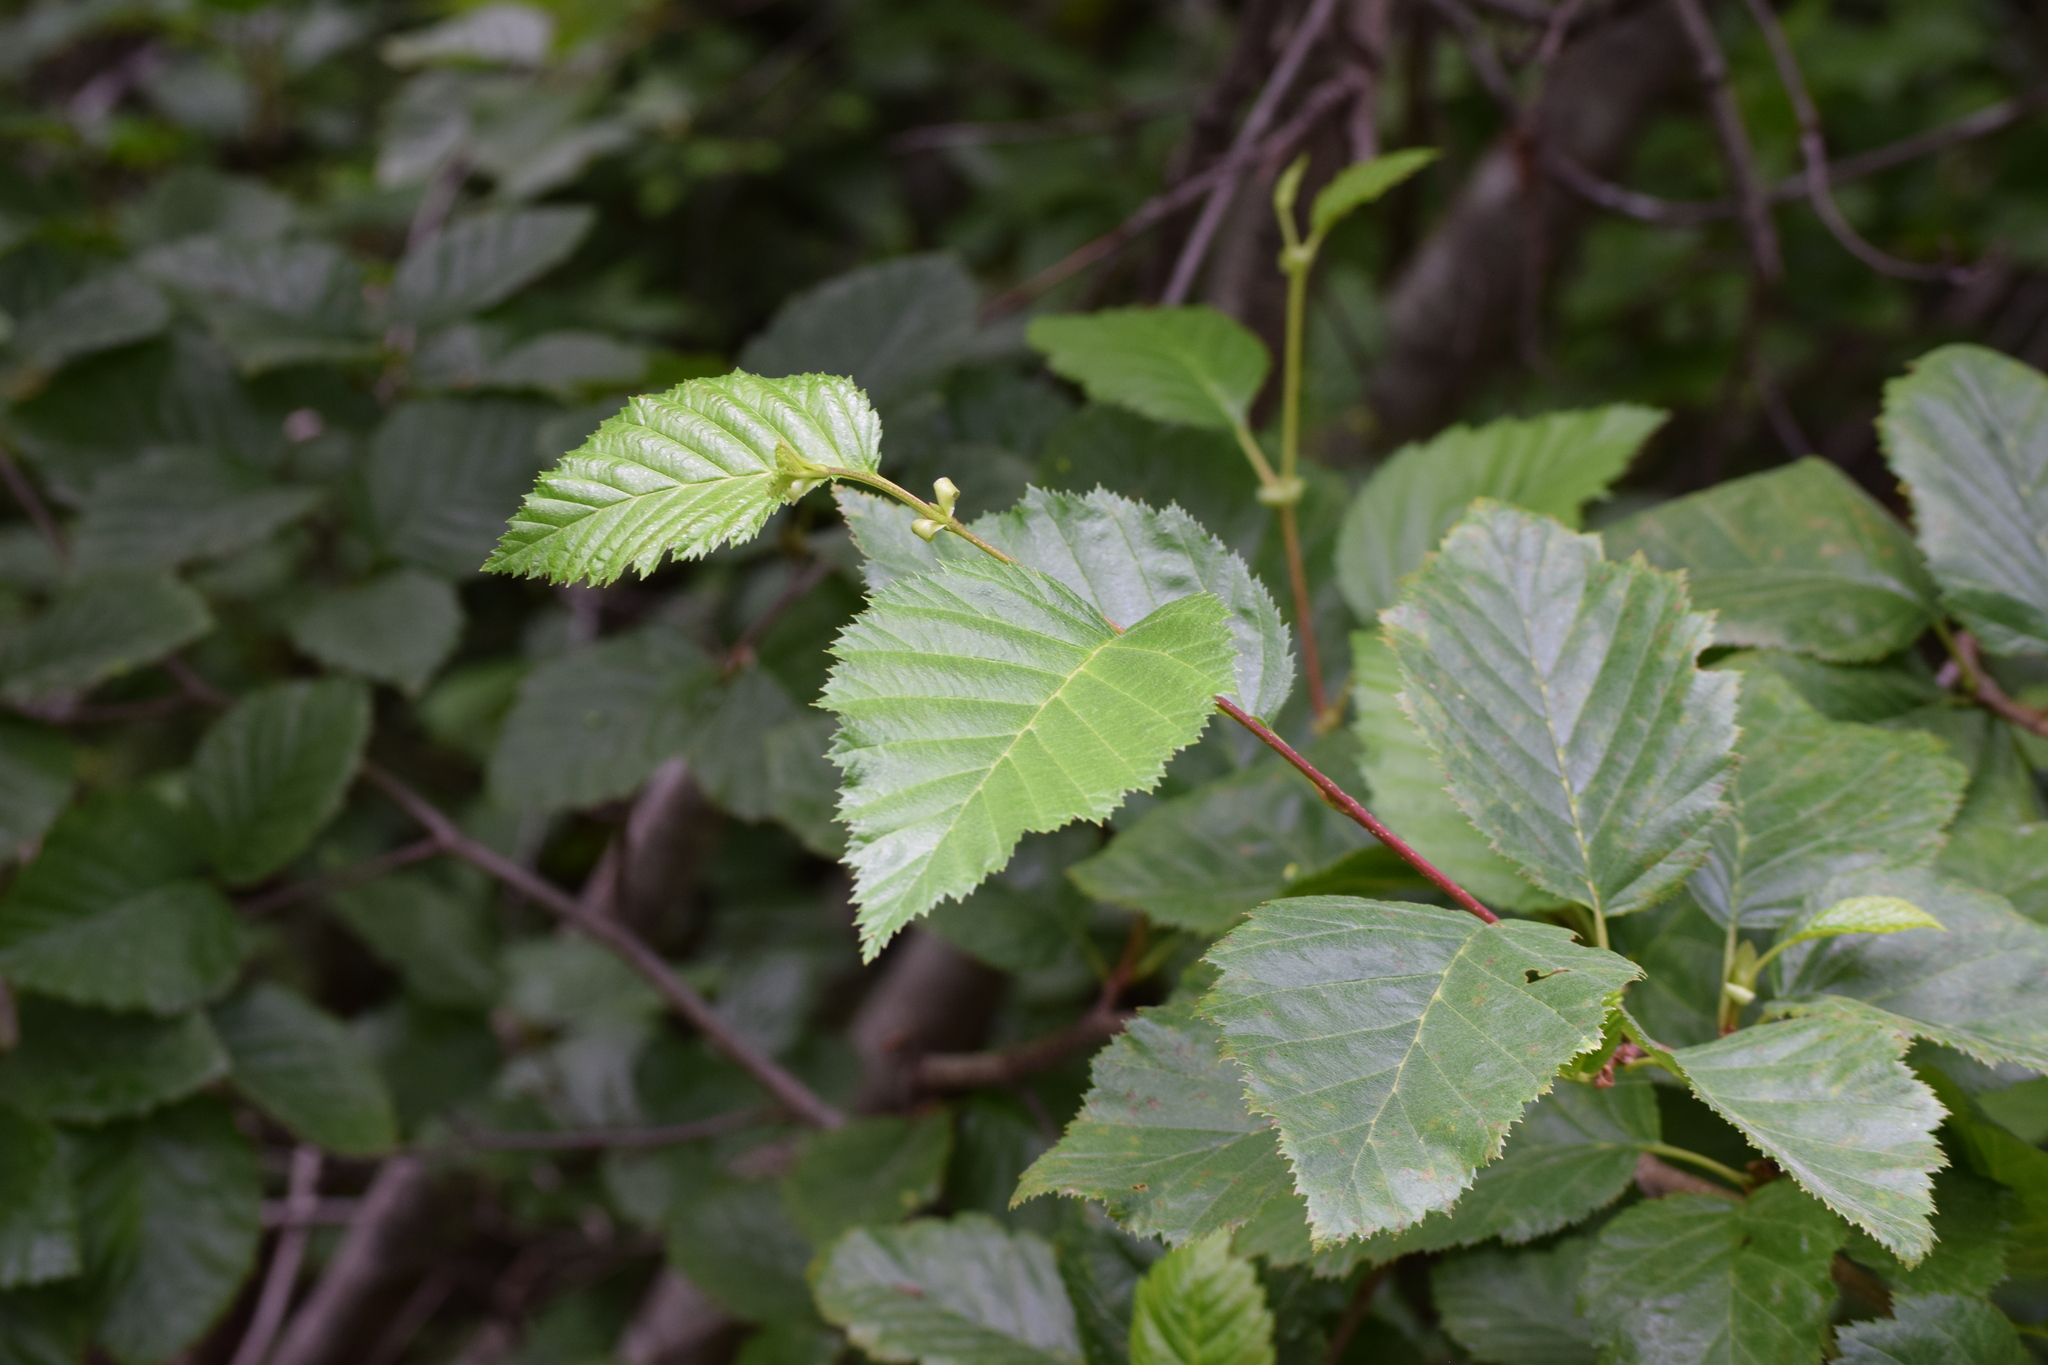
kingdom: Plantae
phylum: Tracheophyta
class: Magnoliopsida
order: Fagales
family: Betulaceae
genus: Alnus
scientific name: Alnus alnobetula
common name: Green alder
